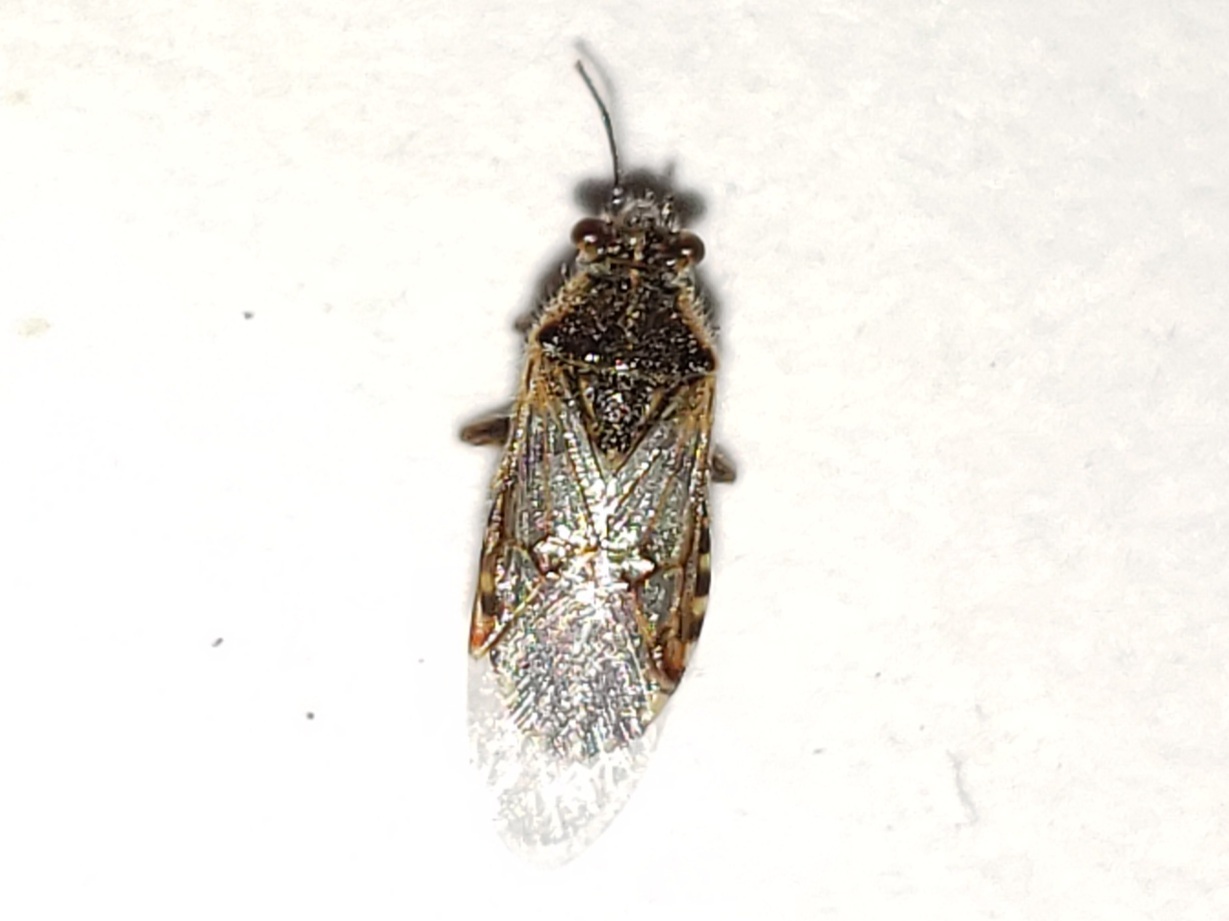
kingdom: Animalia
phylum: Arthropoda
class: Insecta
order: Hemiptera
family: Rhopalidae
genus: Liorhyssus
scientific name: Liorhyssus hyalinus
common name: Scentless plant bug
